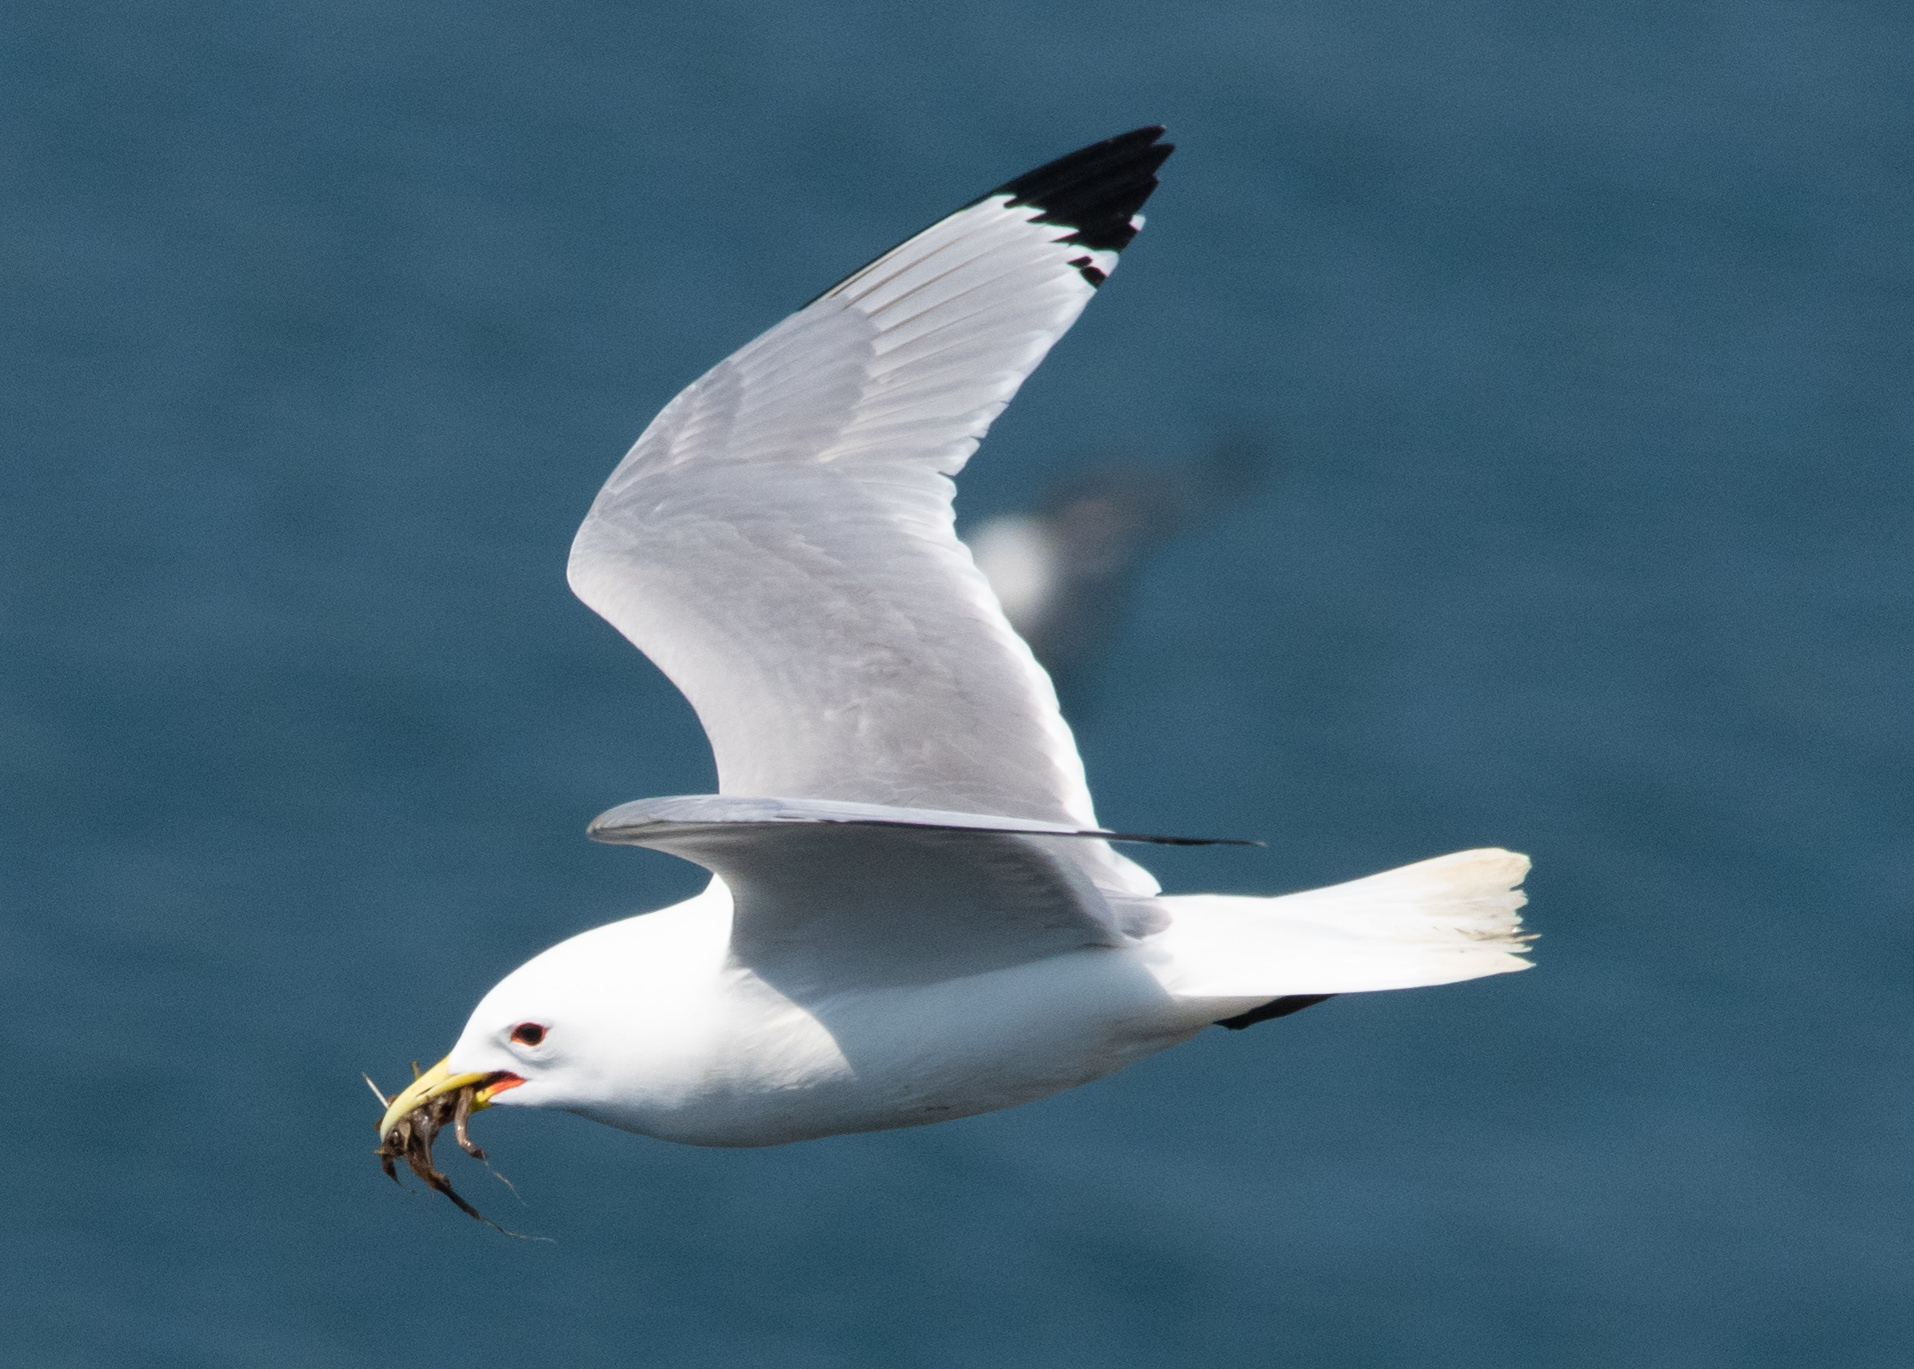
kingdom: Animalia
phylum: Chordata
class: Aves
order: Charadriiformes
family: Laridae
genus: Rissa
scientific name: Rissa tridactyla
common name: Black-legged kittiwake
